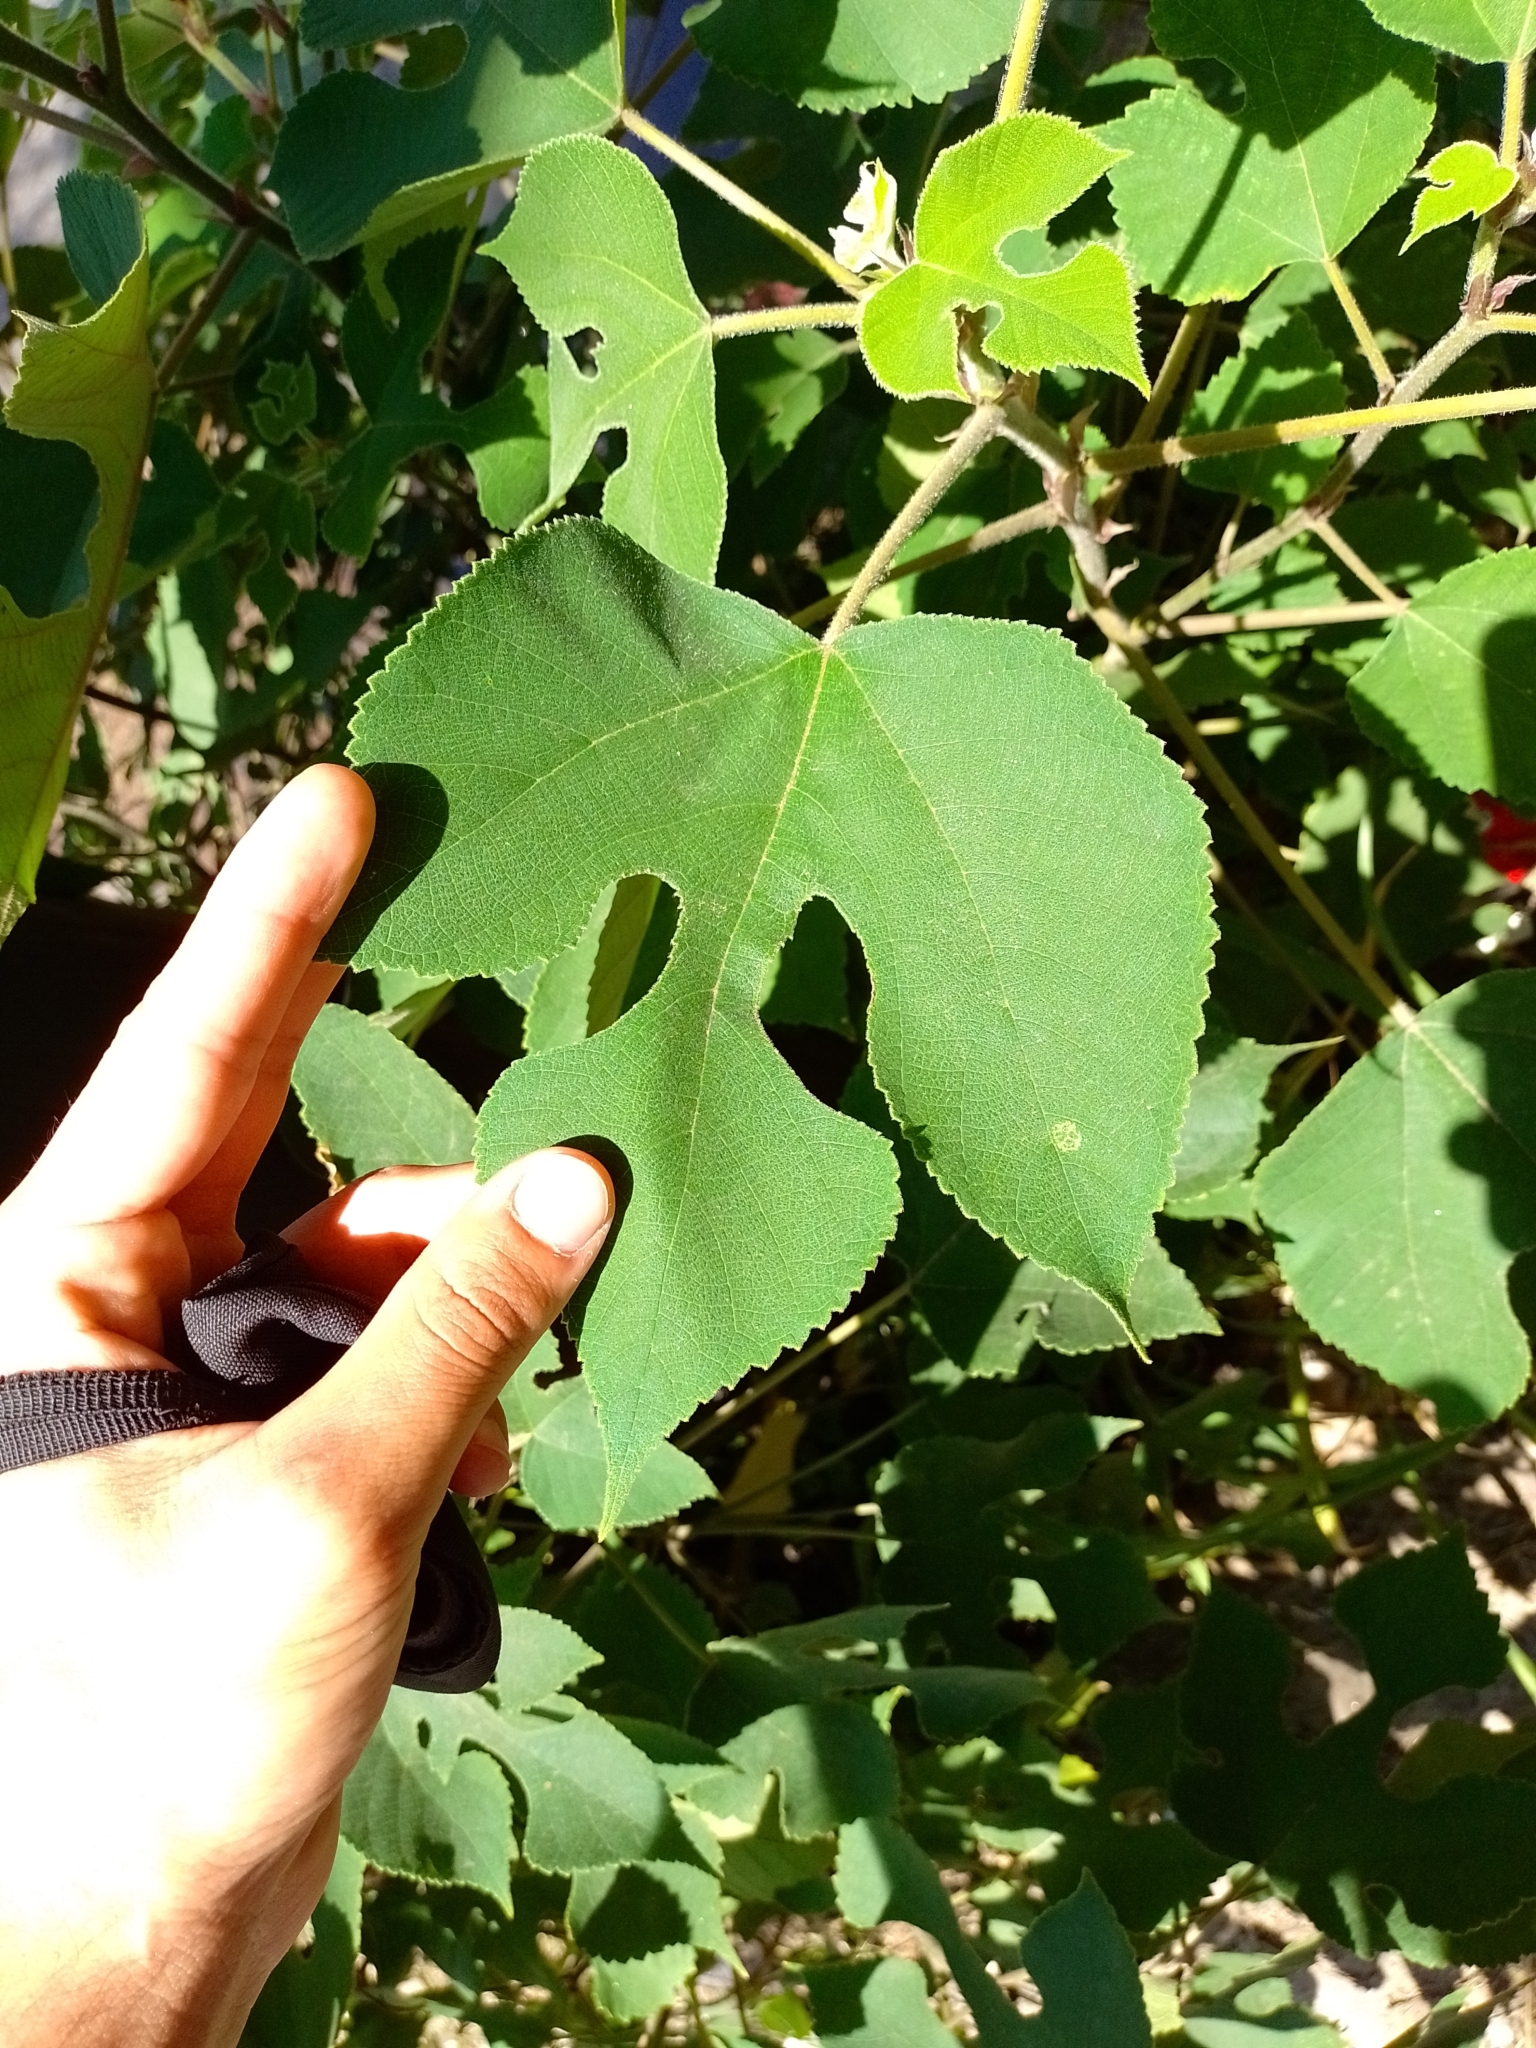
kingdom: Plantae
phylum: Tracheophyta
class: Magnoliopsida
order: Rosales
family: Moraceae
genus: Broussonetia
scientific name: Broussonetia papyrifera
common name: Paper mulberry
